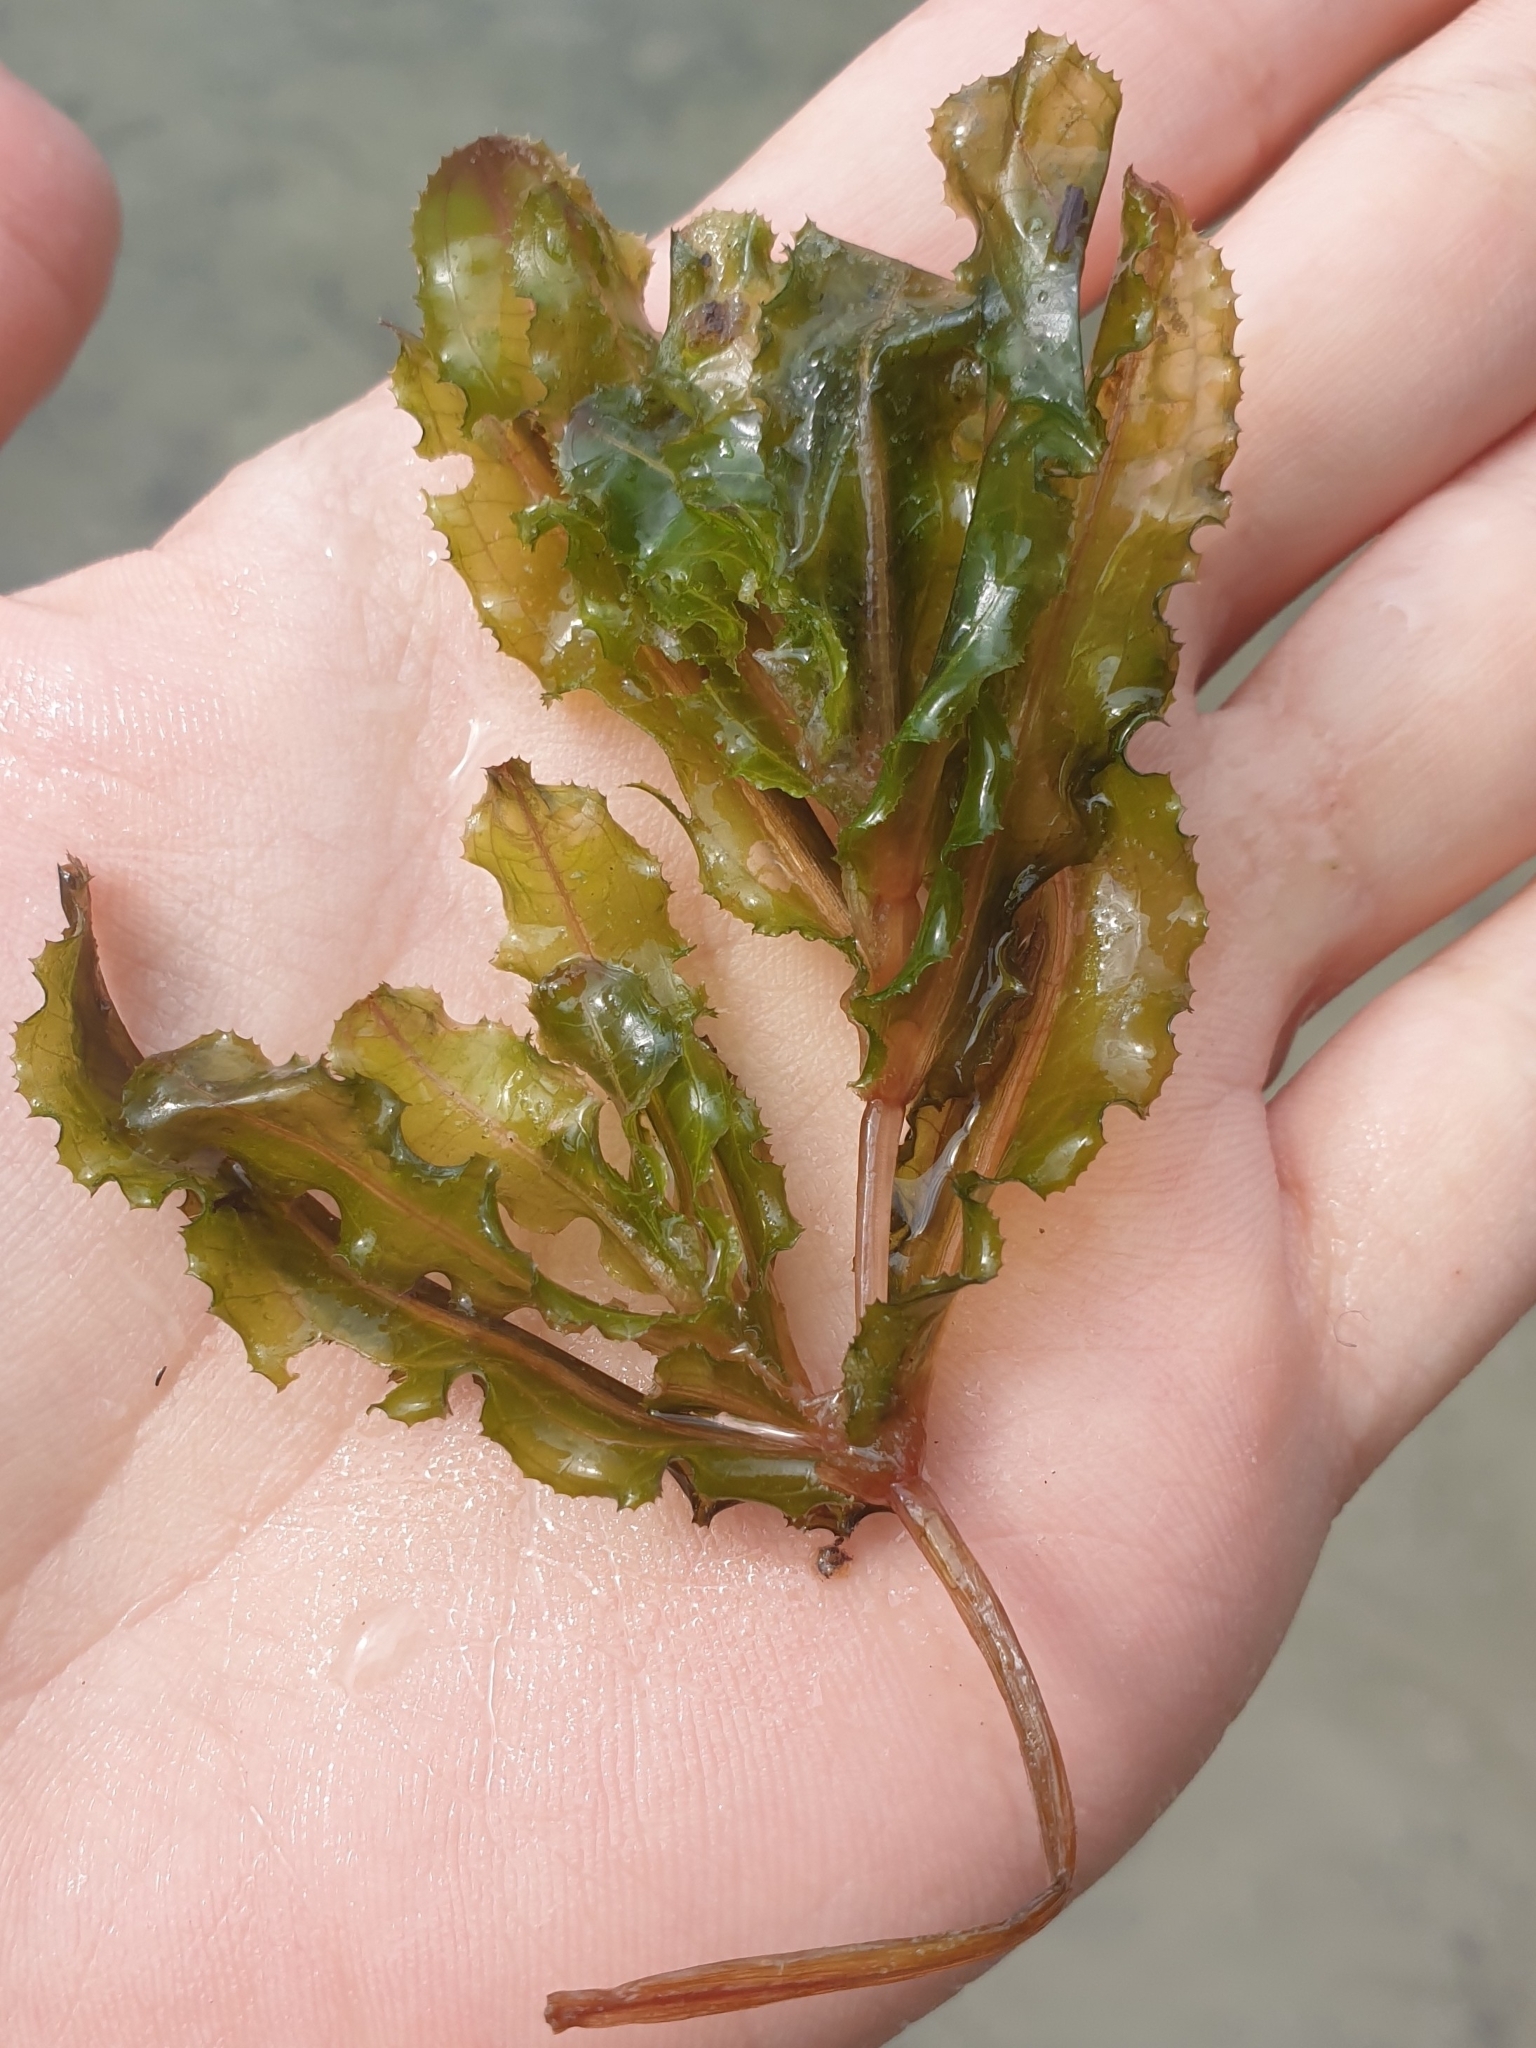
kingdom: Plantae
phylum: Tracheophyta
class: Liliopsida
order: Alismatales
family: Potamogetonaceae
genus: Potamogeton
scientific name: Potamogeton crispus
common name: Curled pondweed
